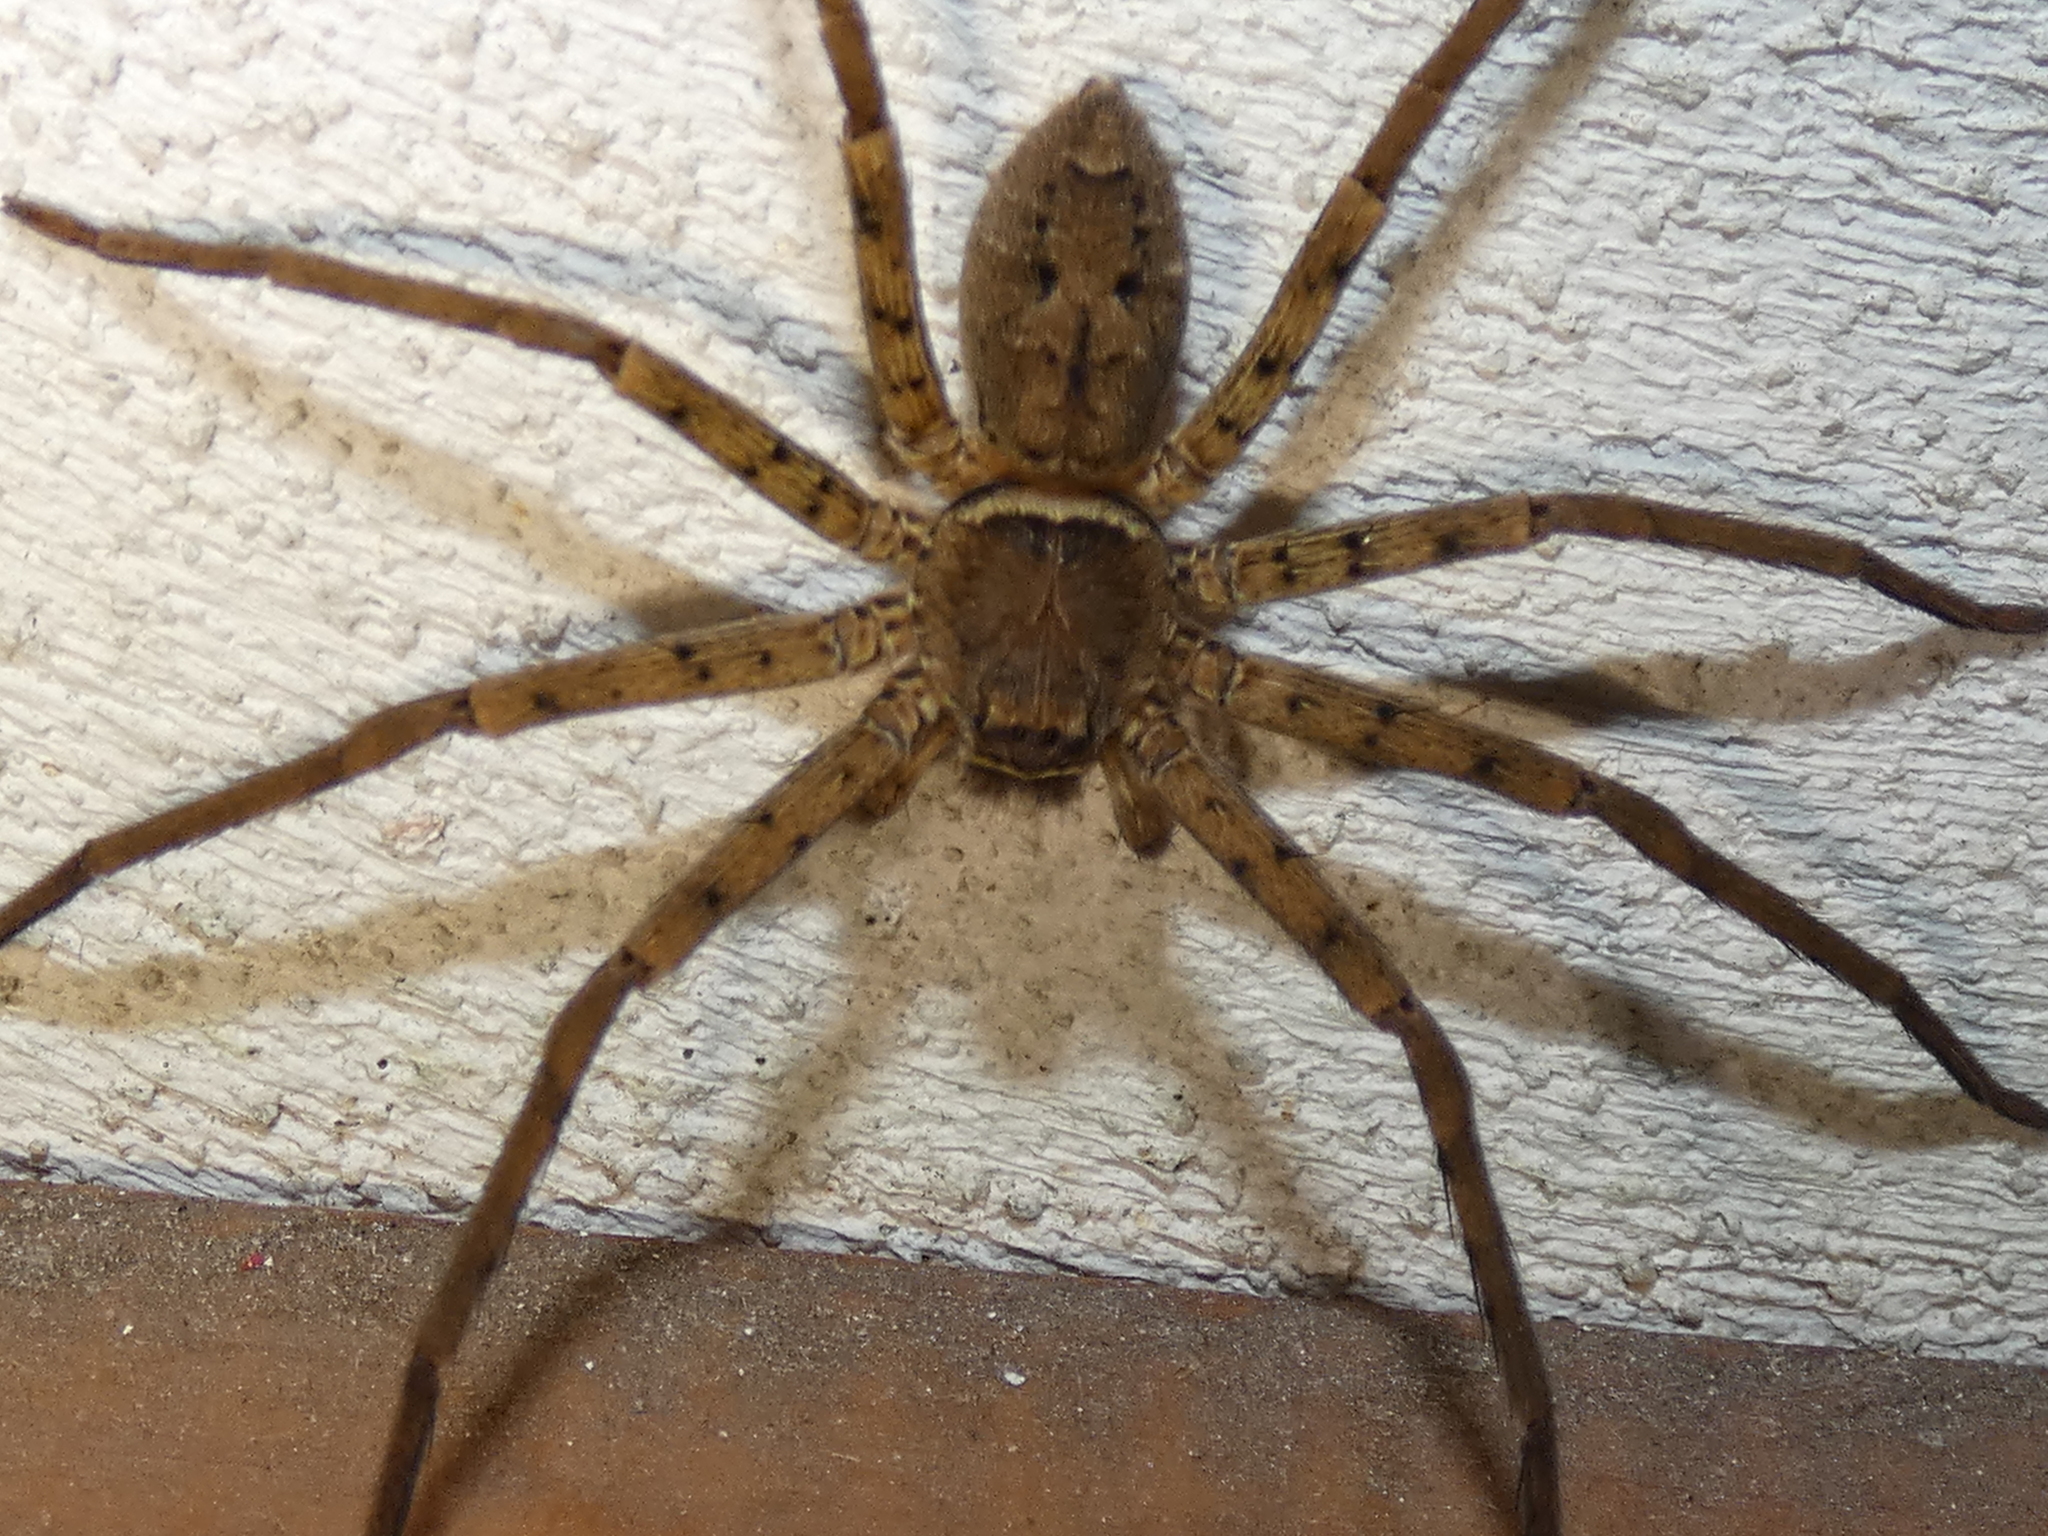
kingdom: Animalia
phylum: Arthropoda
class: Arachnida
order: Araneae
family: Sparassidae
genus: Heteropoda
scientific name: Heteropoda venatoria
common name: Huntsman spider
